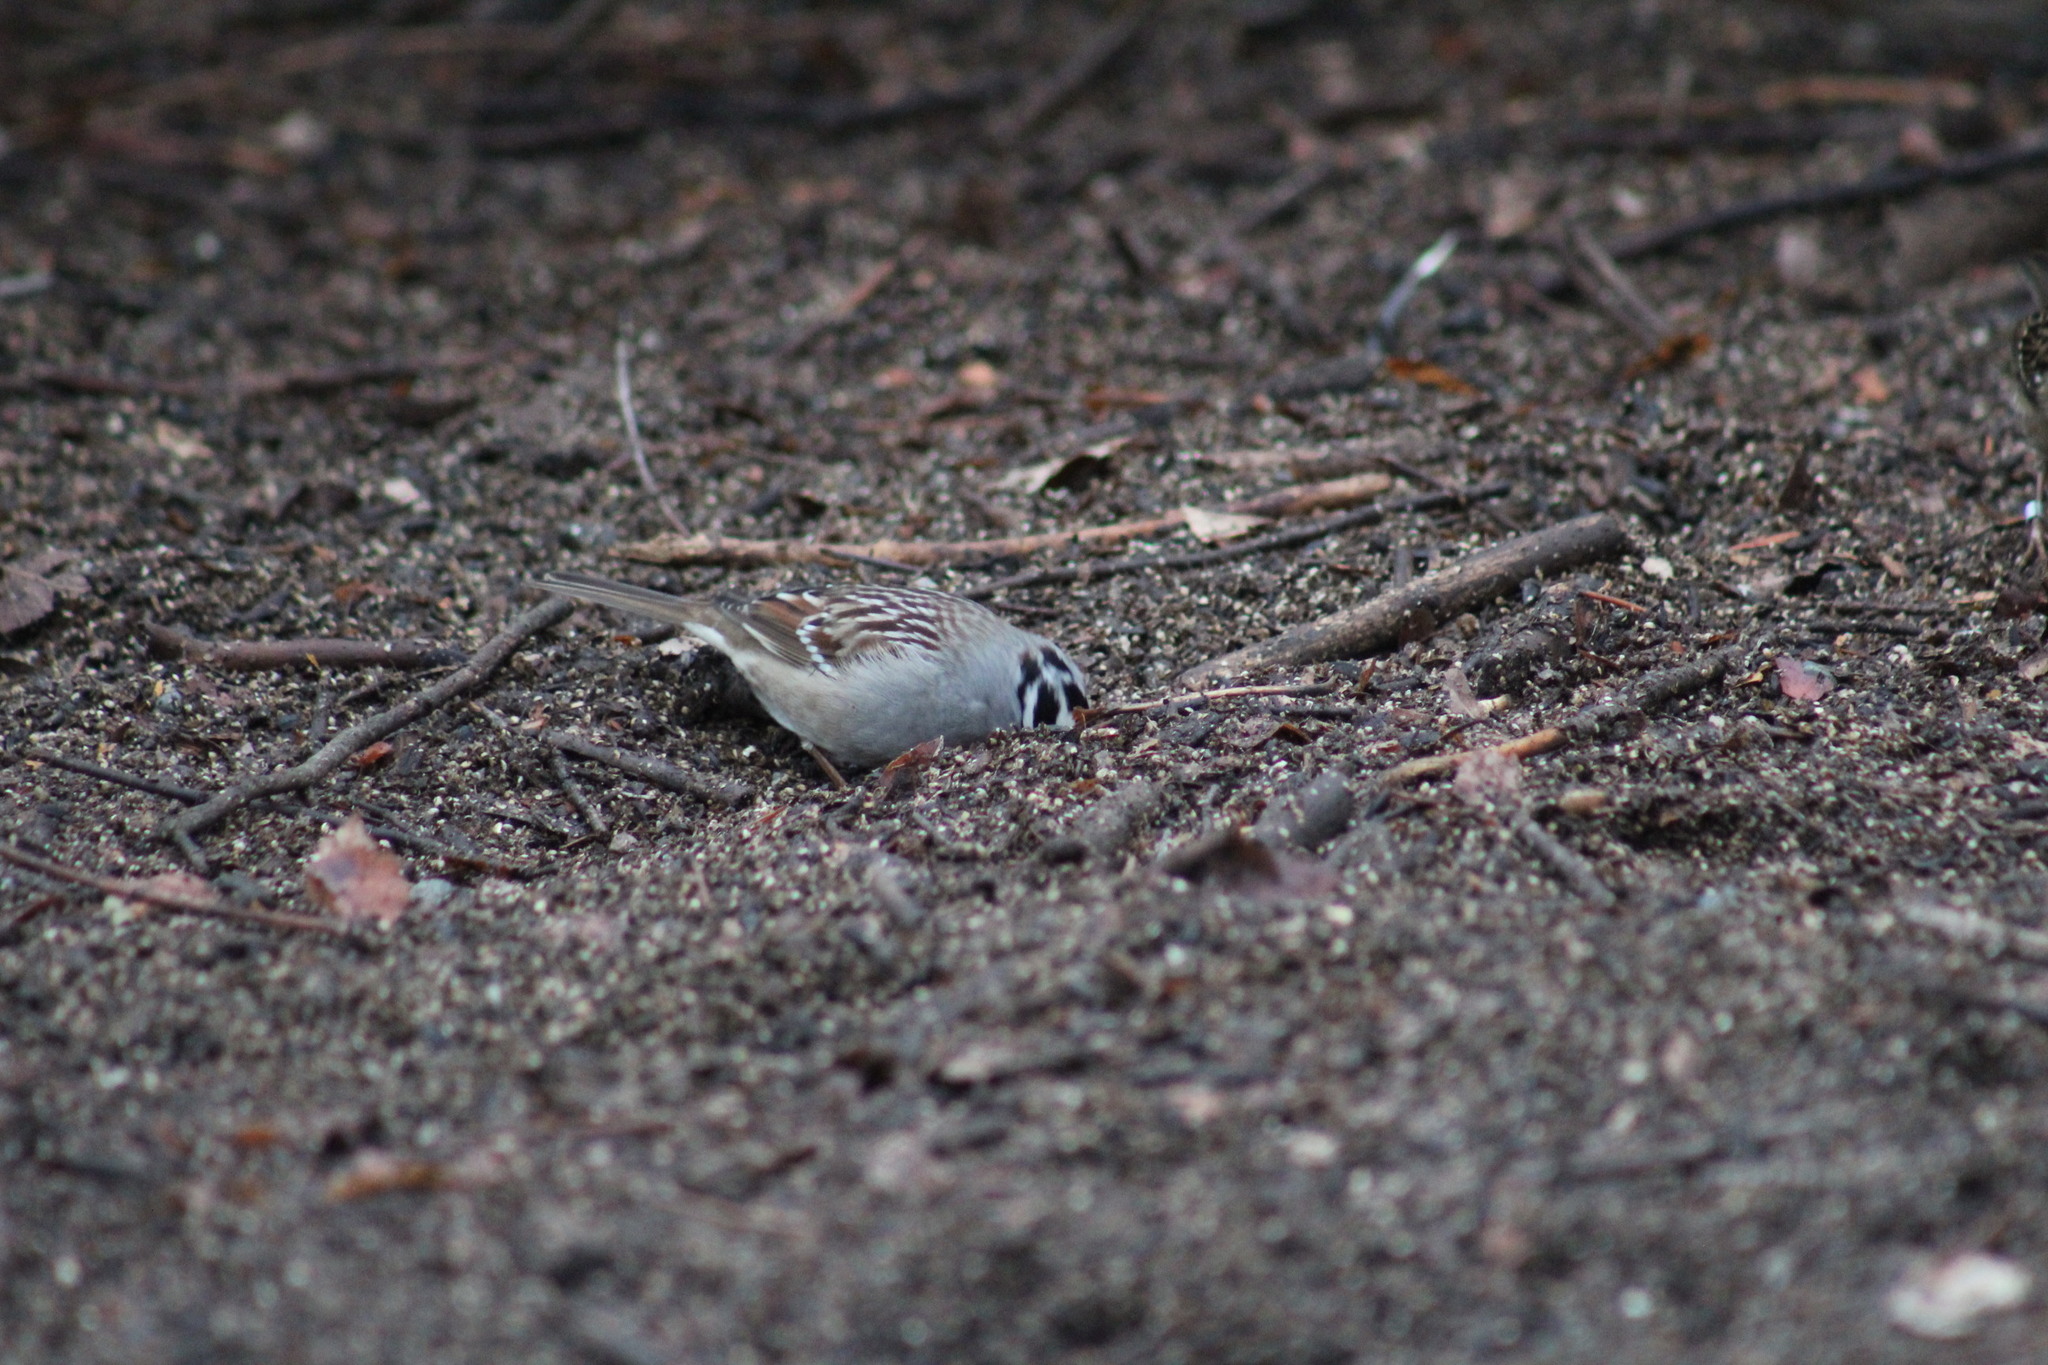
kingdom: Animalia
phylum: Chordata
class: Aves
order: Passeriformes
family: Passerellidae
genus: Zonotrichia
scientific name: Zonotrichia leucophrys
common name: White-crowned sparrow
